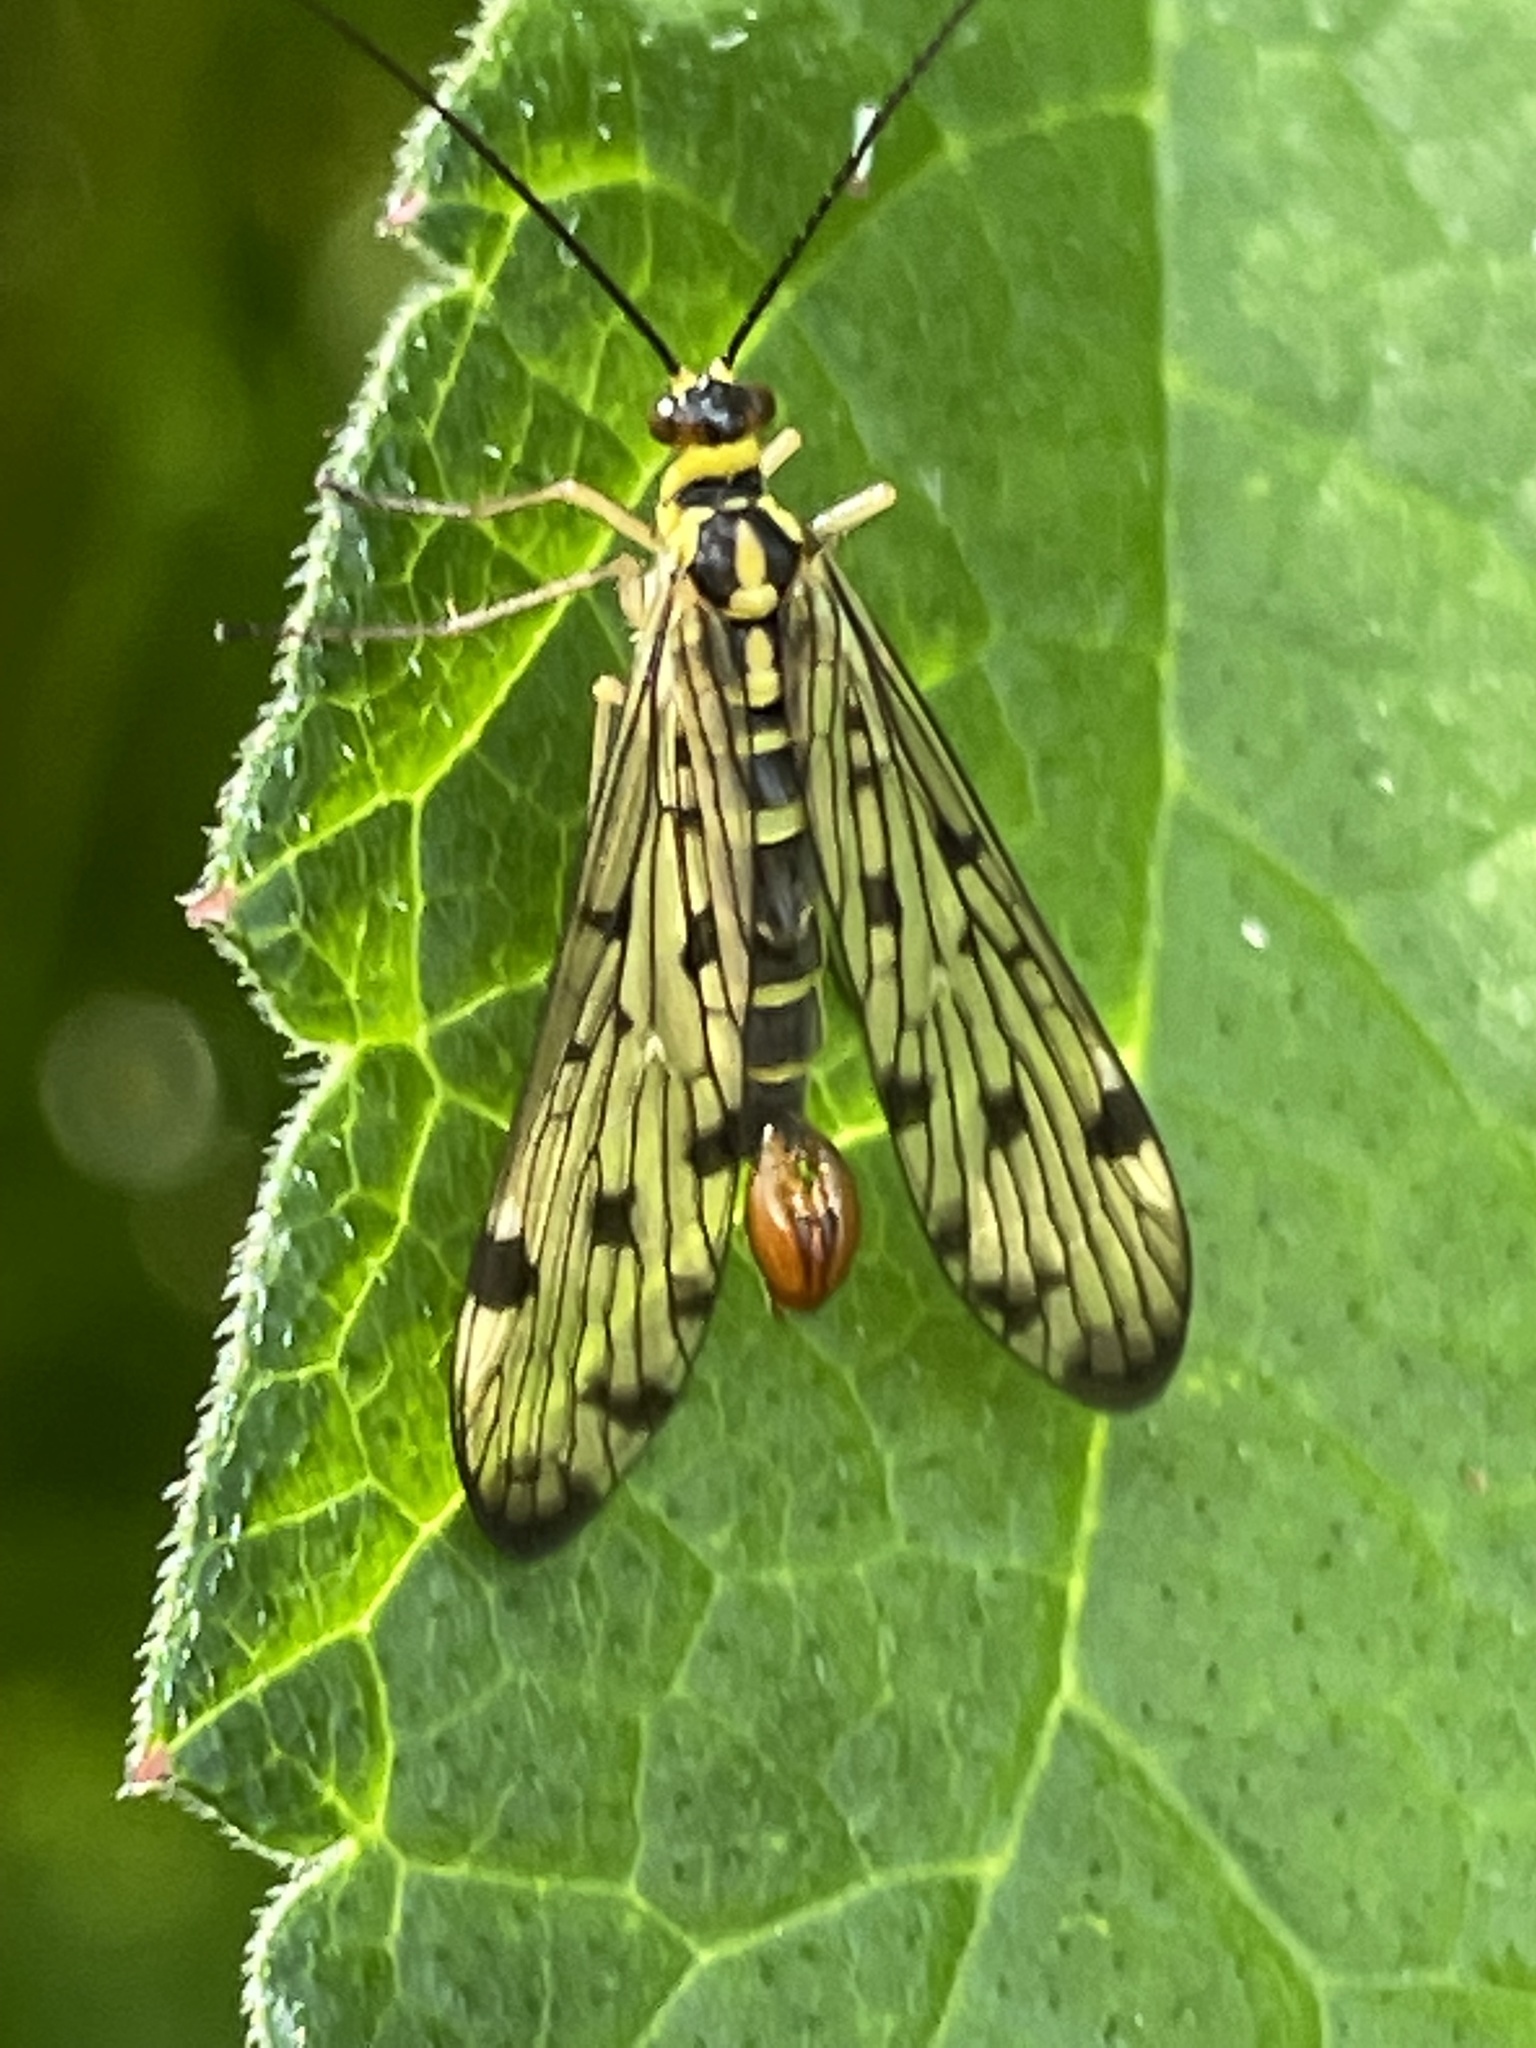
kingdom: Animalia
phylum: Arthropoda
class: Insecta
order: Mecoptera
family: Panorpidae
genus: Panorpa
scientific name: Panorpa germanica
